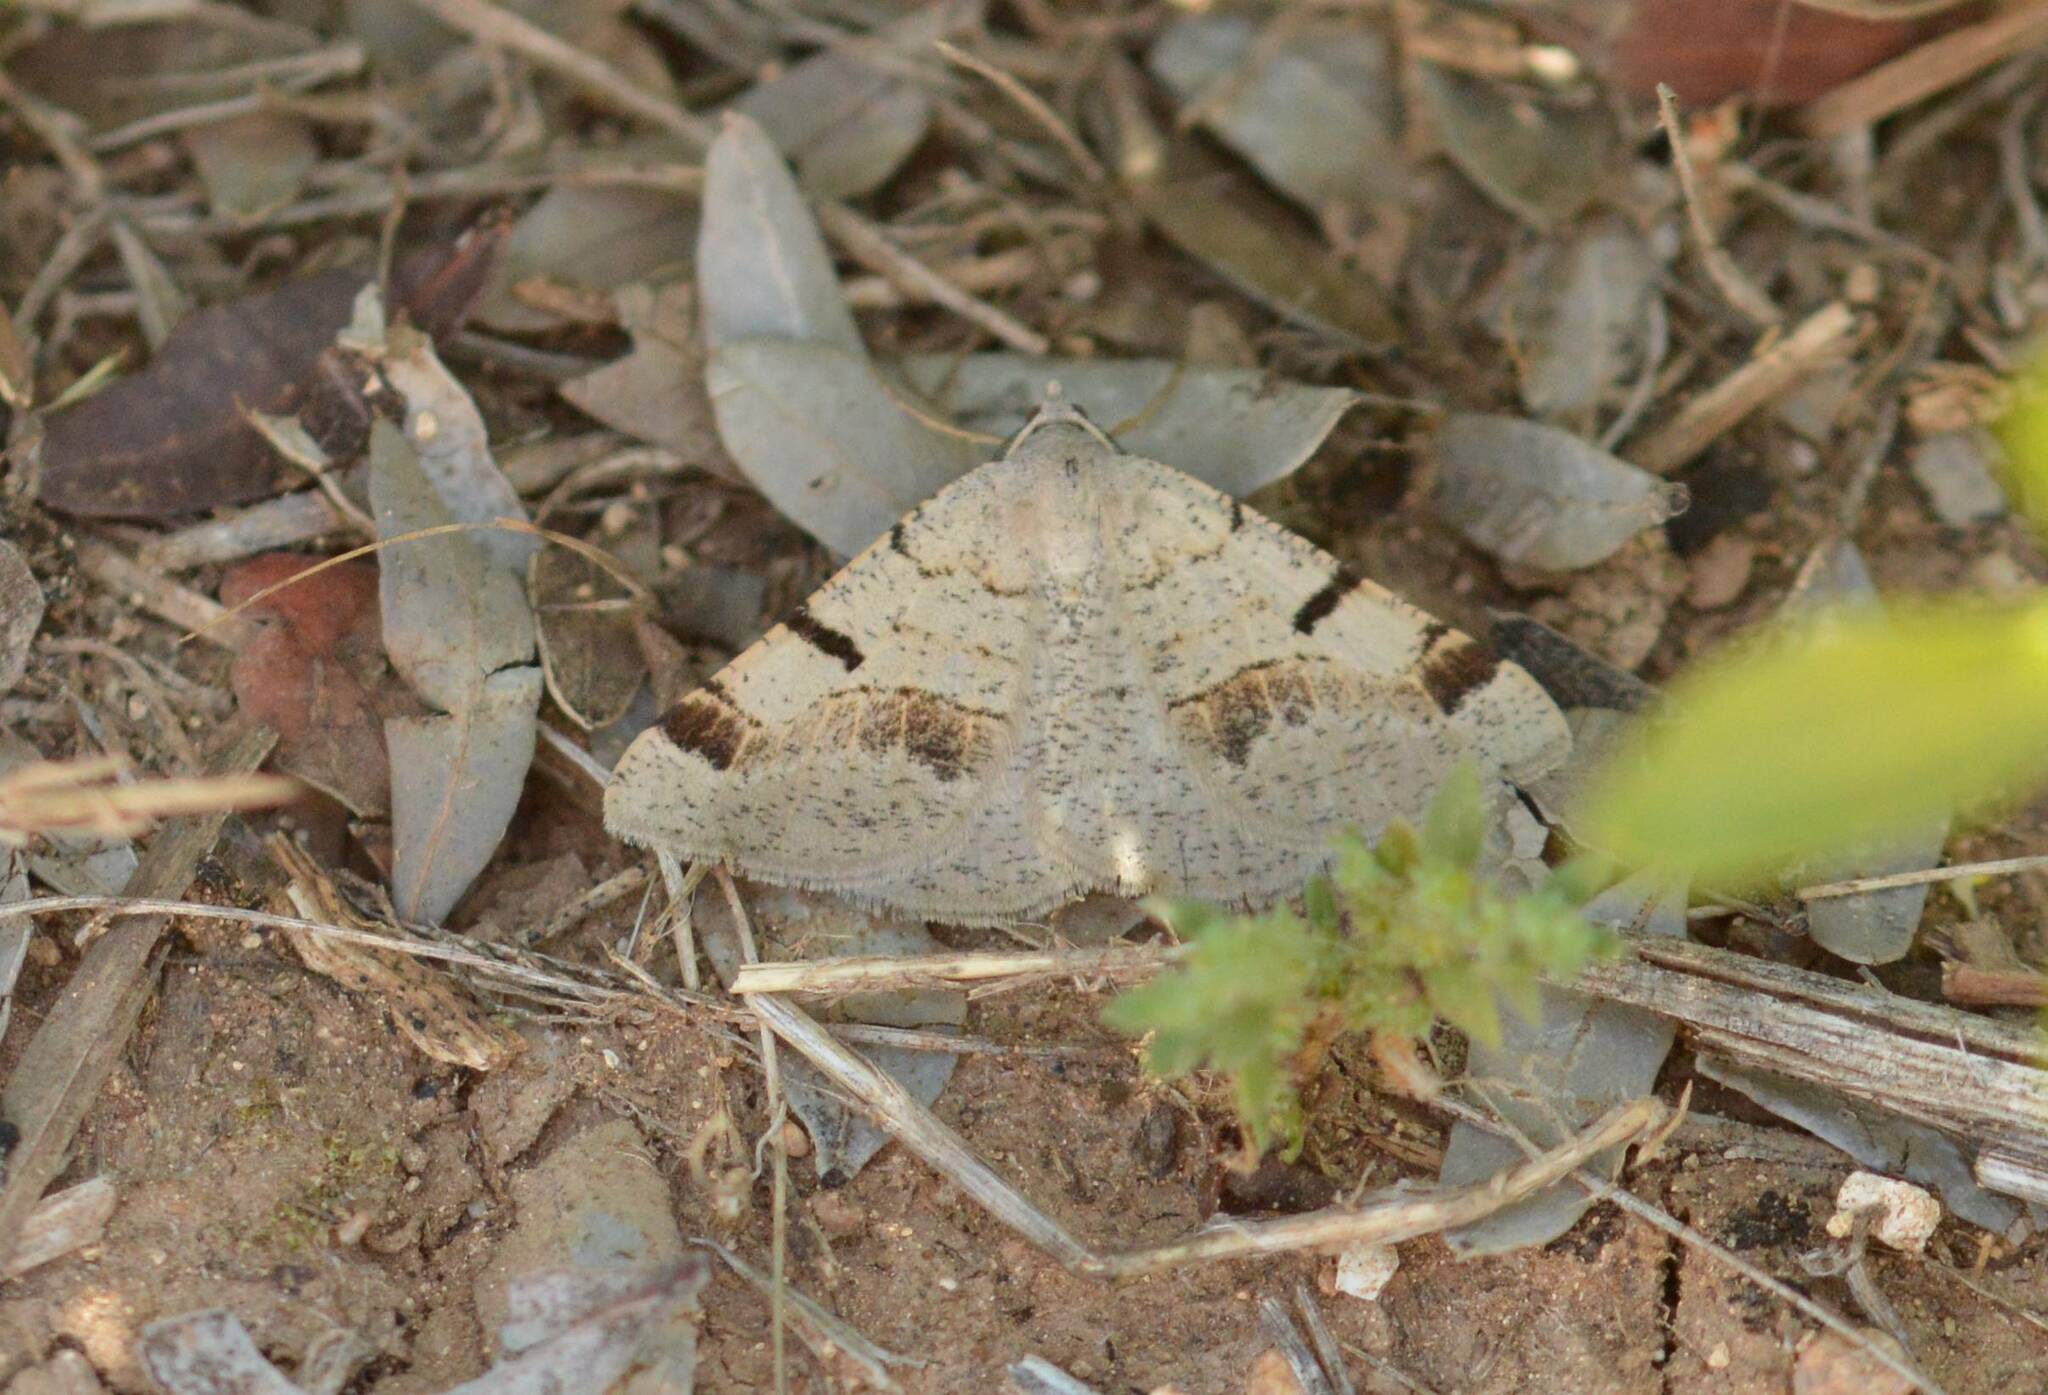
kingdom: Animalia
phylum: Arthropoda
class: Insecta
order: Lepidoptera
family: Geometridae
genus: Itame
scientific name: Itame vincularia
